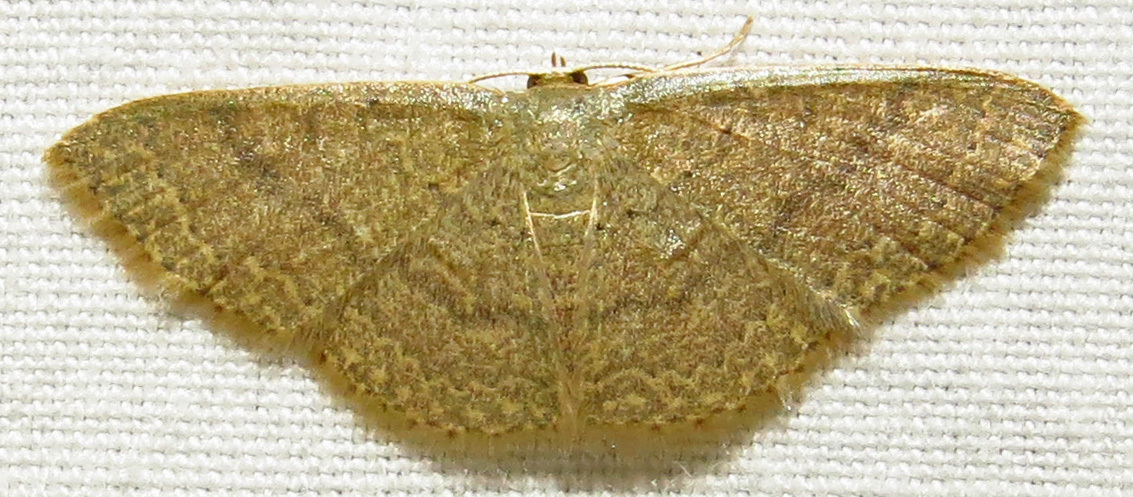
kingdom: Animalia
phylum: Arthropoda
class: Insecta
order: Lepidoptera
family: Geometridae
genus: Pleuroprucha
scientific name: Pleuroprucha insulsaria
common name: Common tan wave
